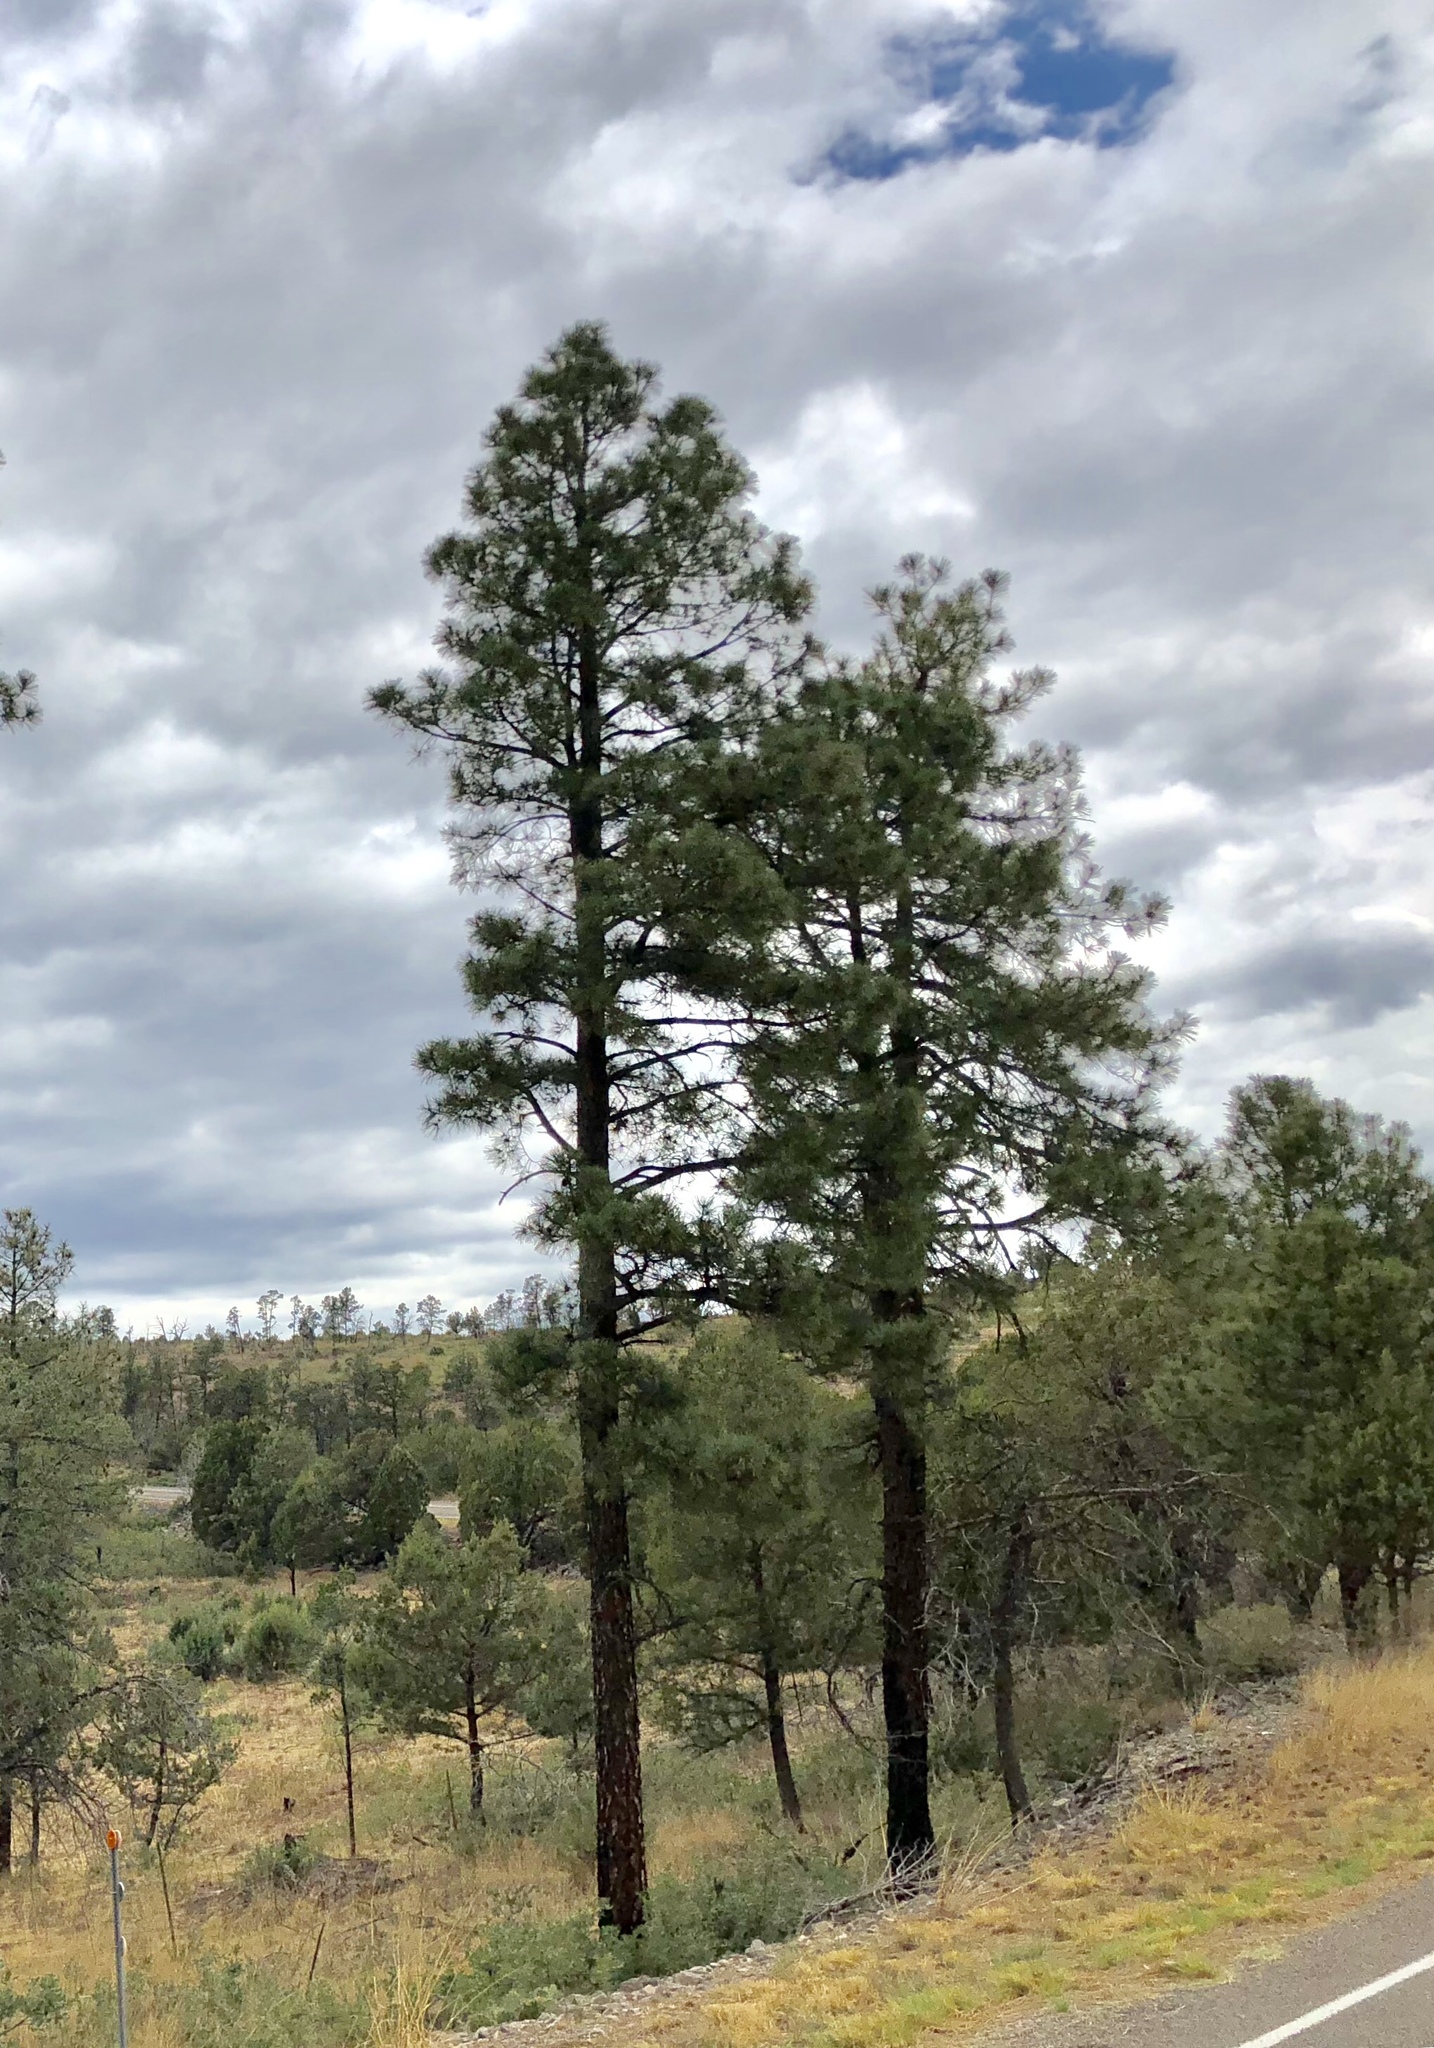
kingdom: Plantae
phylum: Tracheophyta
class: Pinopsida
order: Pinales
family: Pinaceae
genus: Pinus
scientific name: Pinus ponderosa
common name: Western yellow-pine
